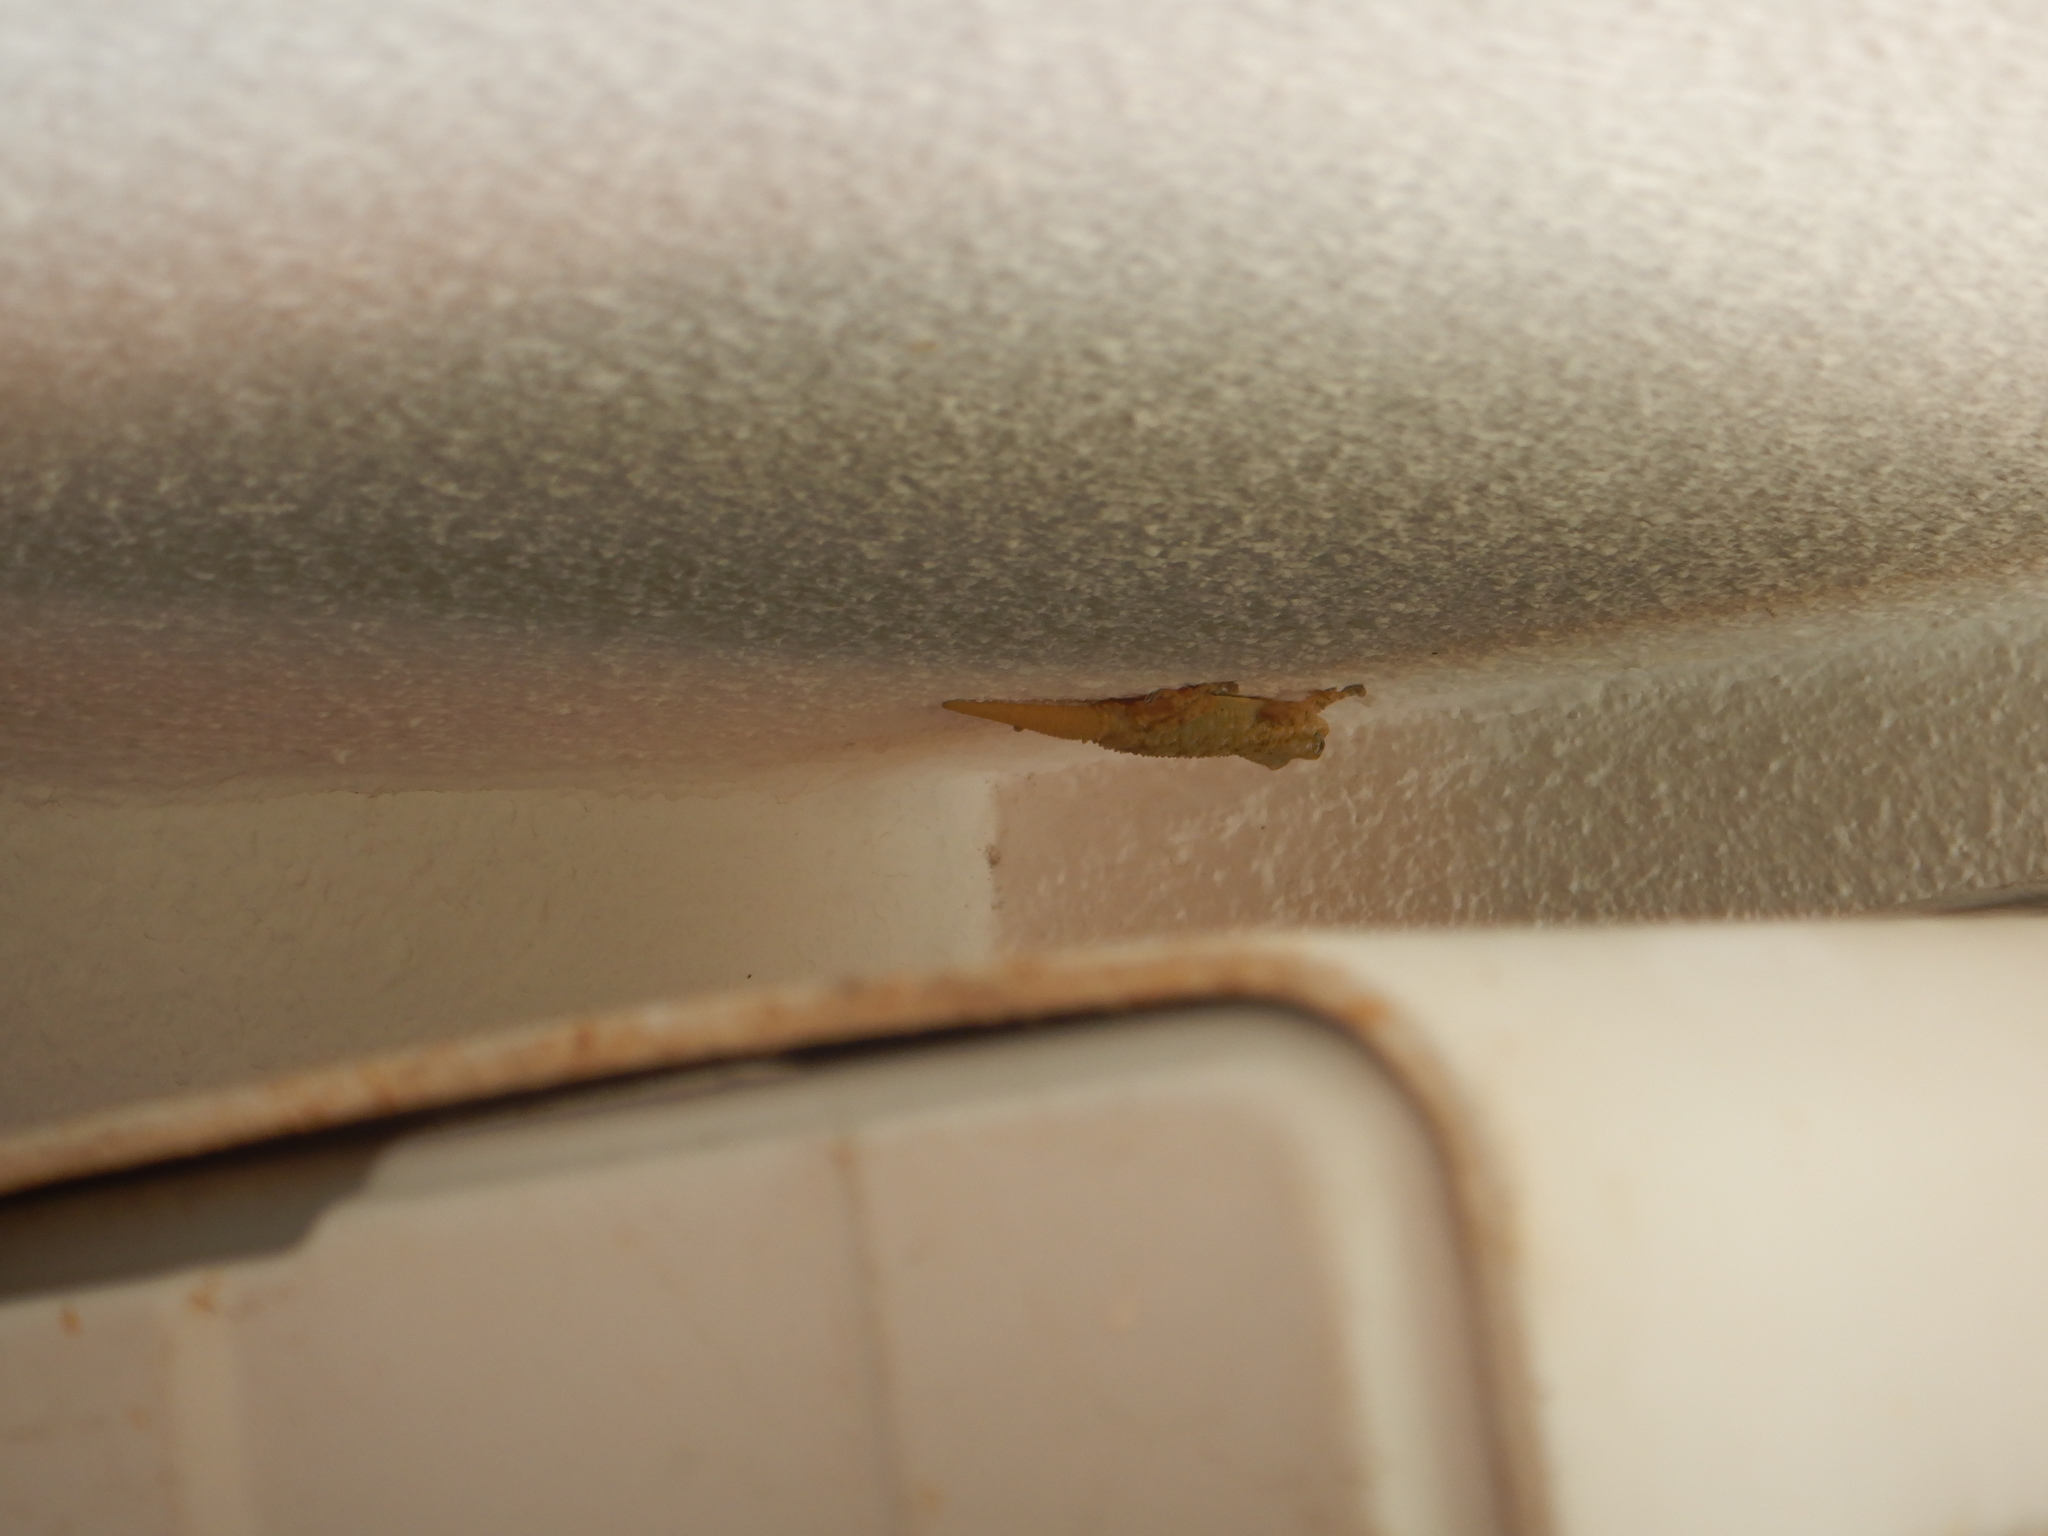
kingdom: Animalia
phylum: Chordata
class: Squamata
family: Phyllodactylidae
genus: Tarentola
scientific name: Tarentola mauritanica
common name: Moorish gecko
